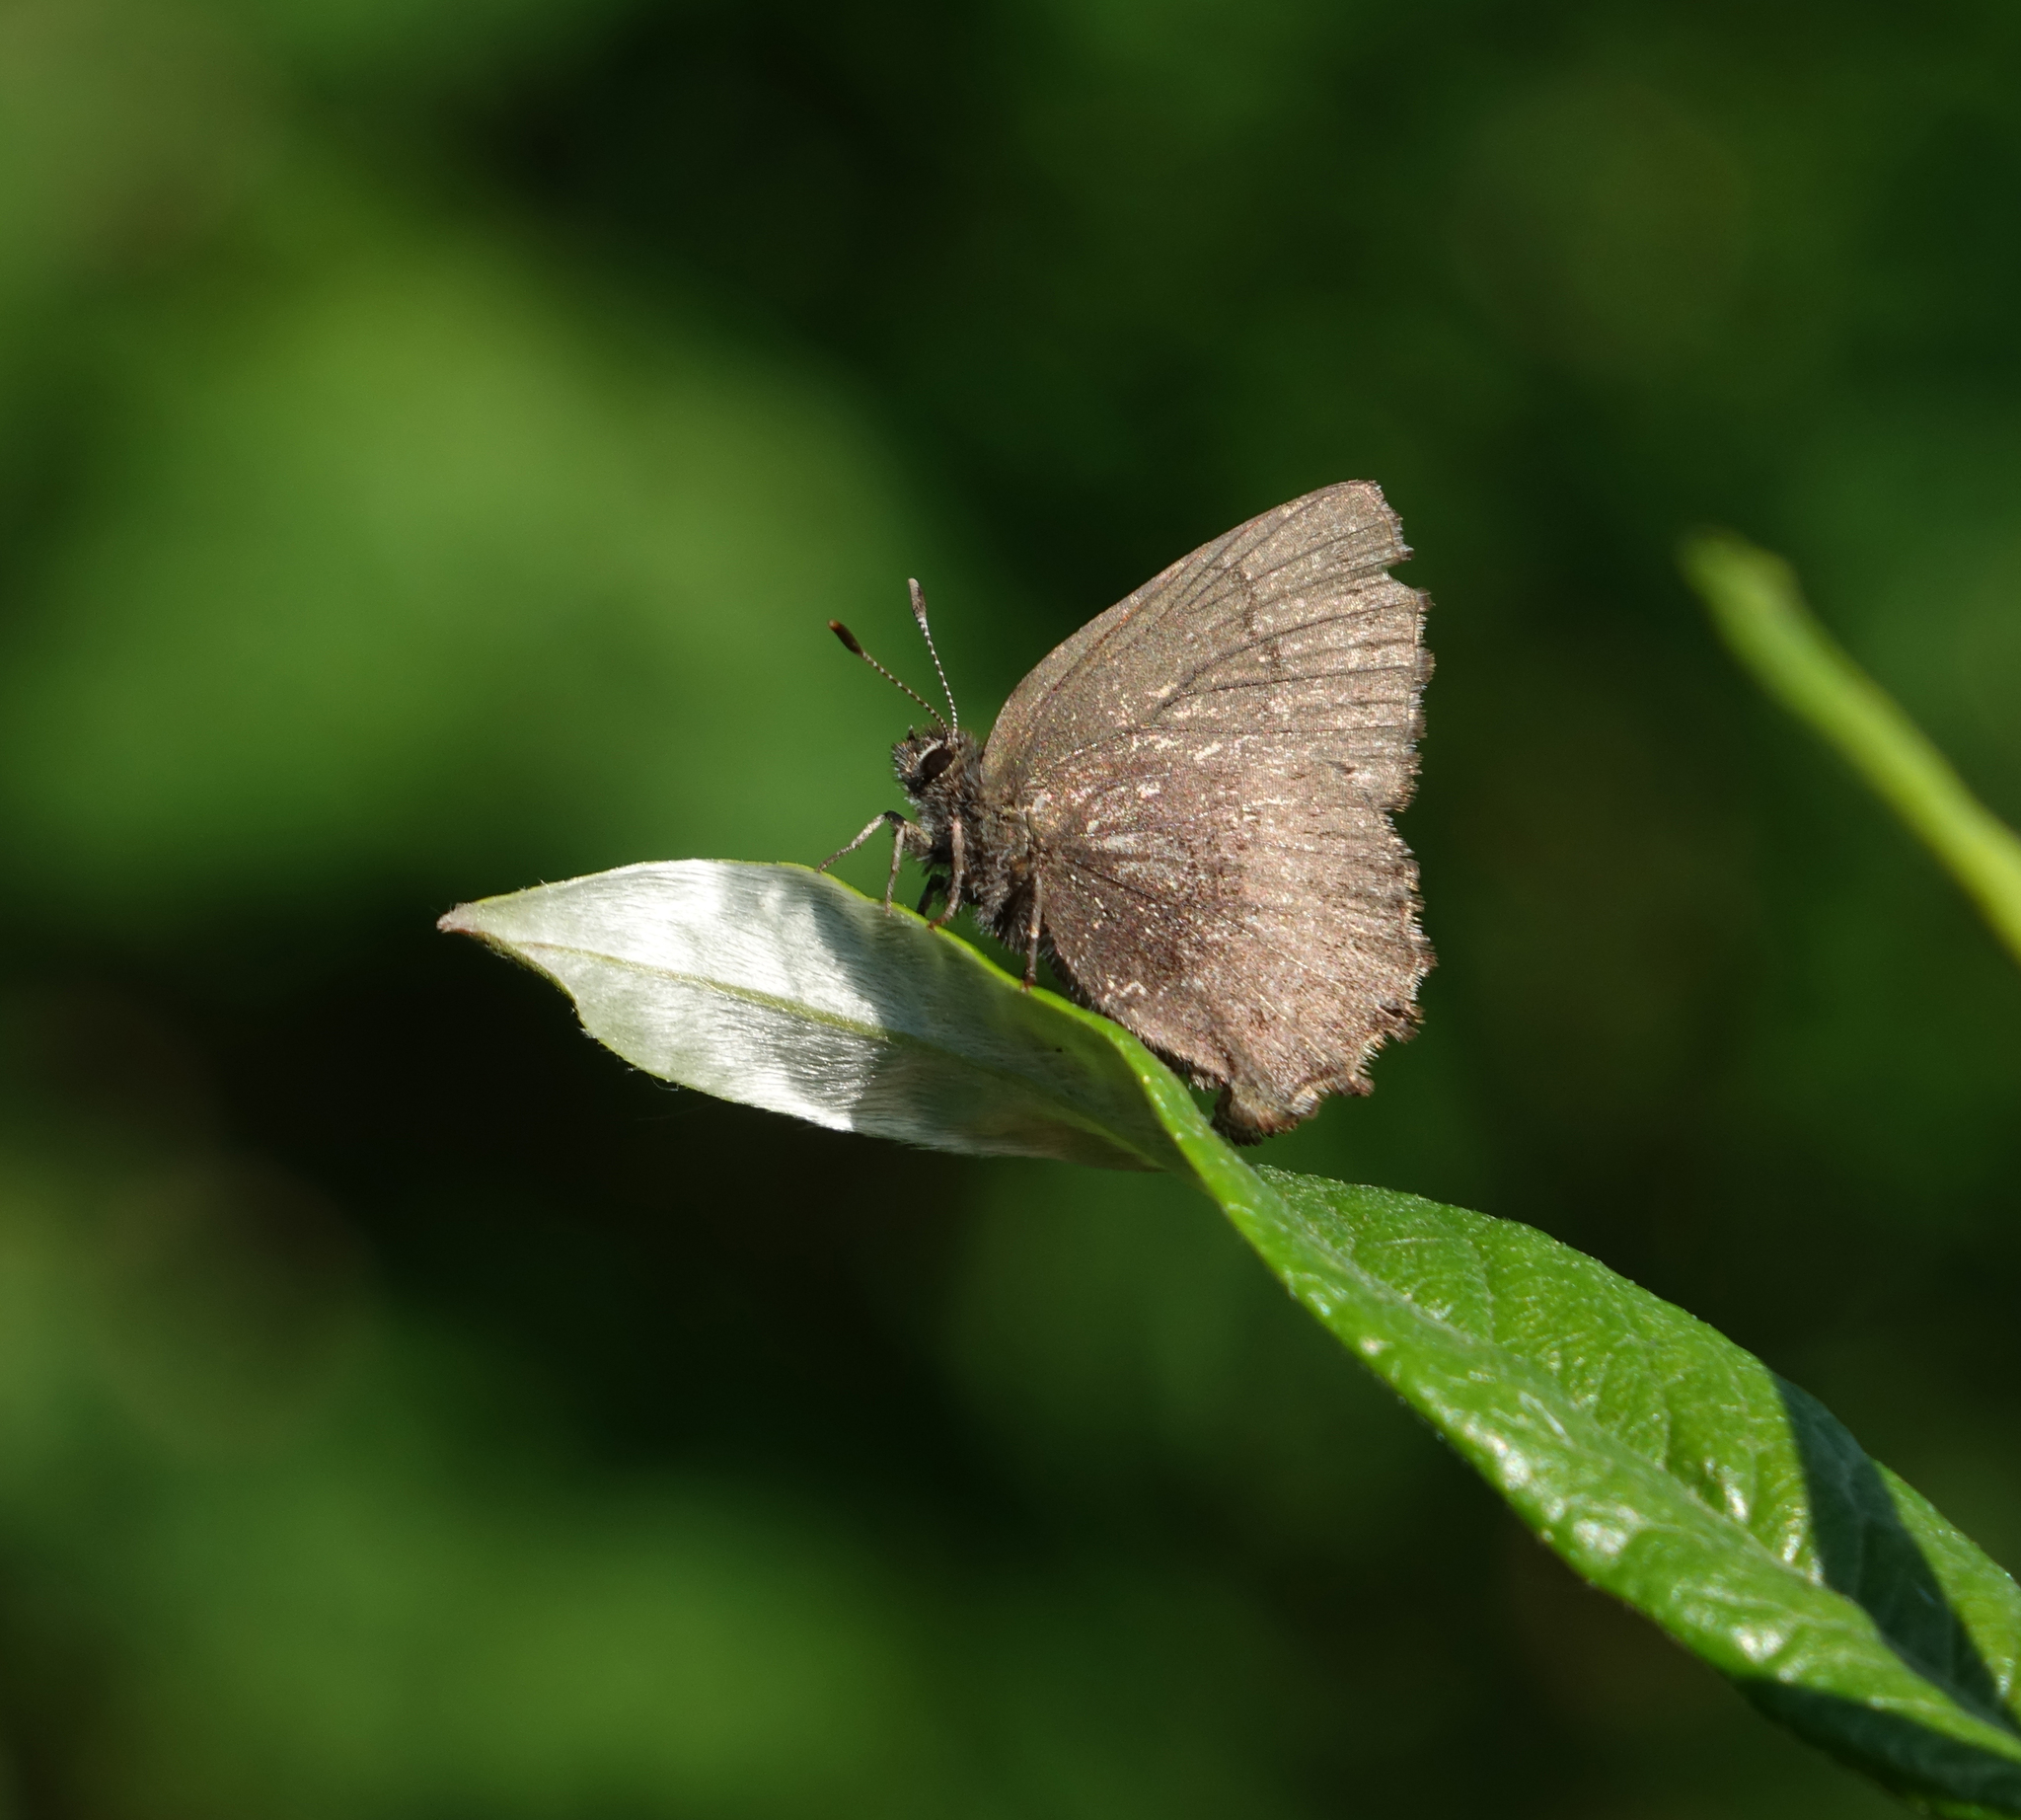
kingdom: Animalia
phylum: Arthropoda
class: Insecta
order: Lepidoptera
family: Lycaenidae
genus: Ginzia
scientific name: Ginzia Ahlbergia frivaldszkyi
